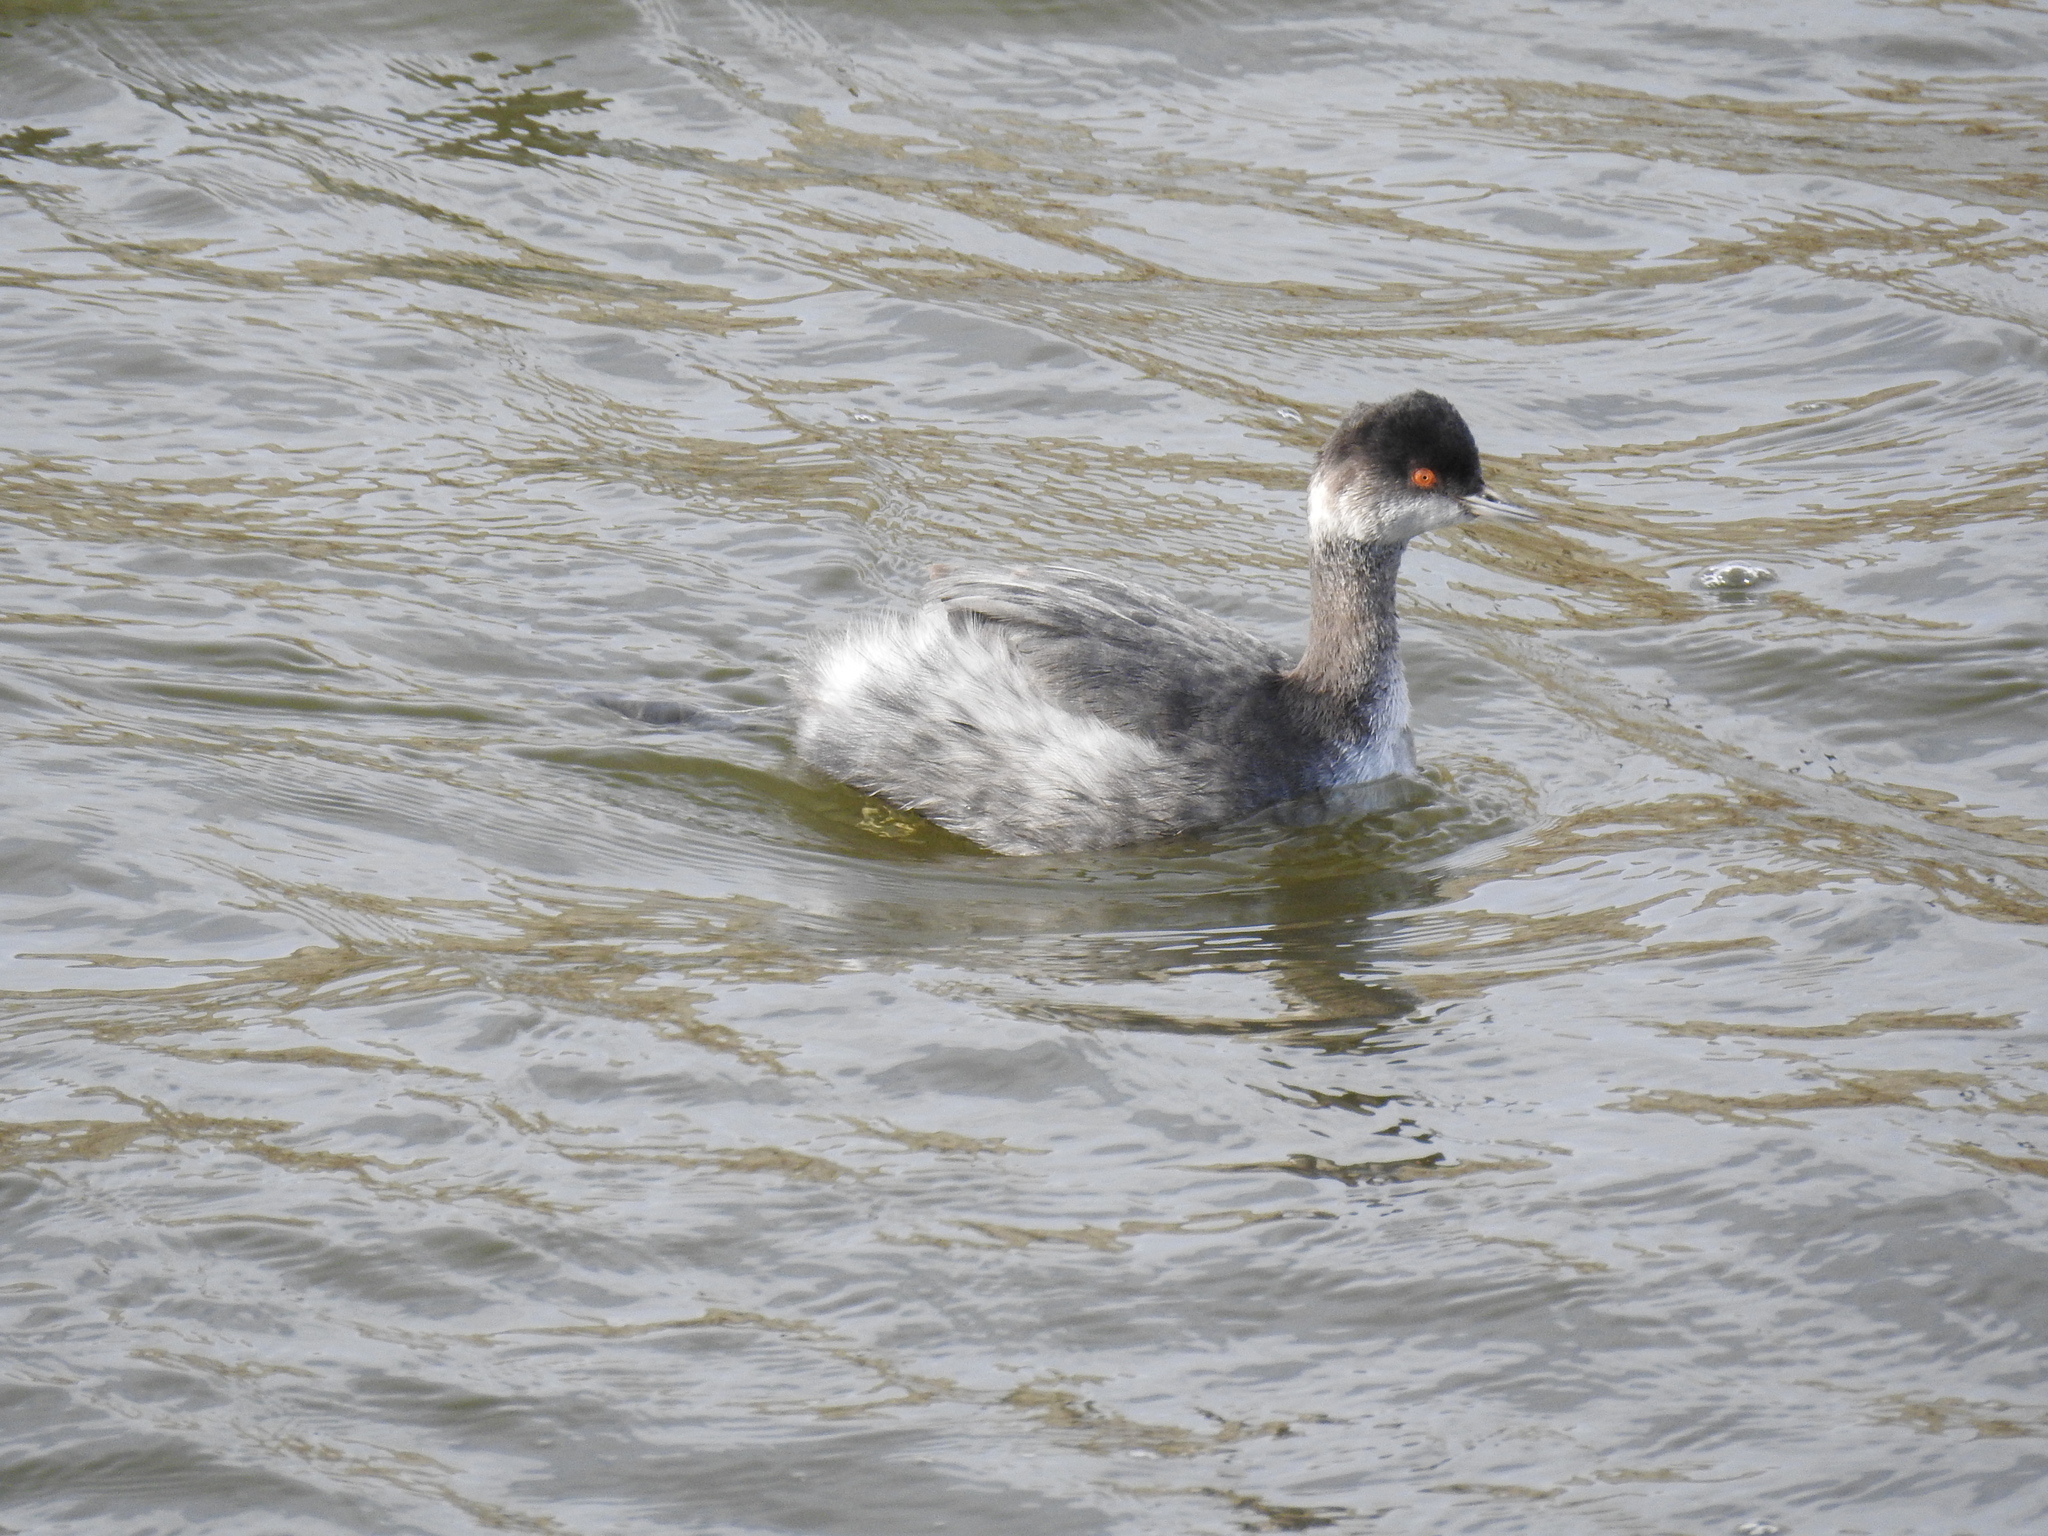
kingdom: Animalia
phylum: Chordata
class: Aves
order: Podicipediformes
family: Podicipedidae
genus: Podiceps
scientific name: Podiceps nigricollis
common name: Black-necked grebe
